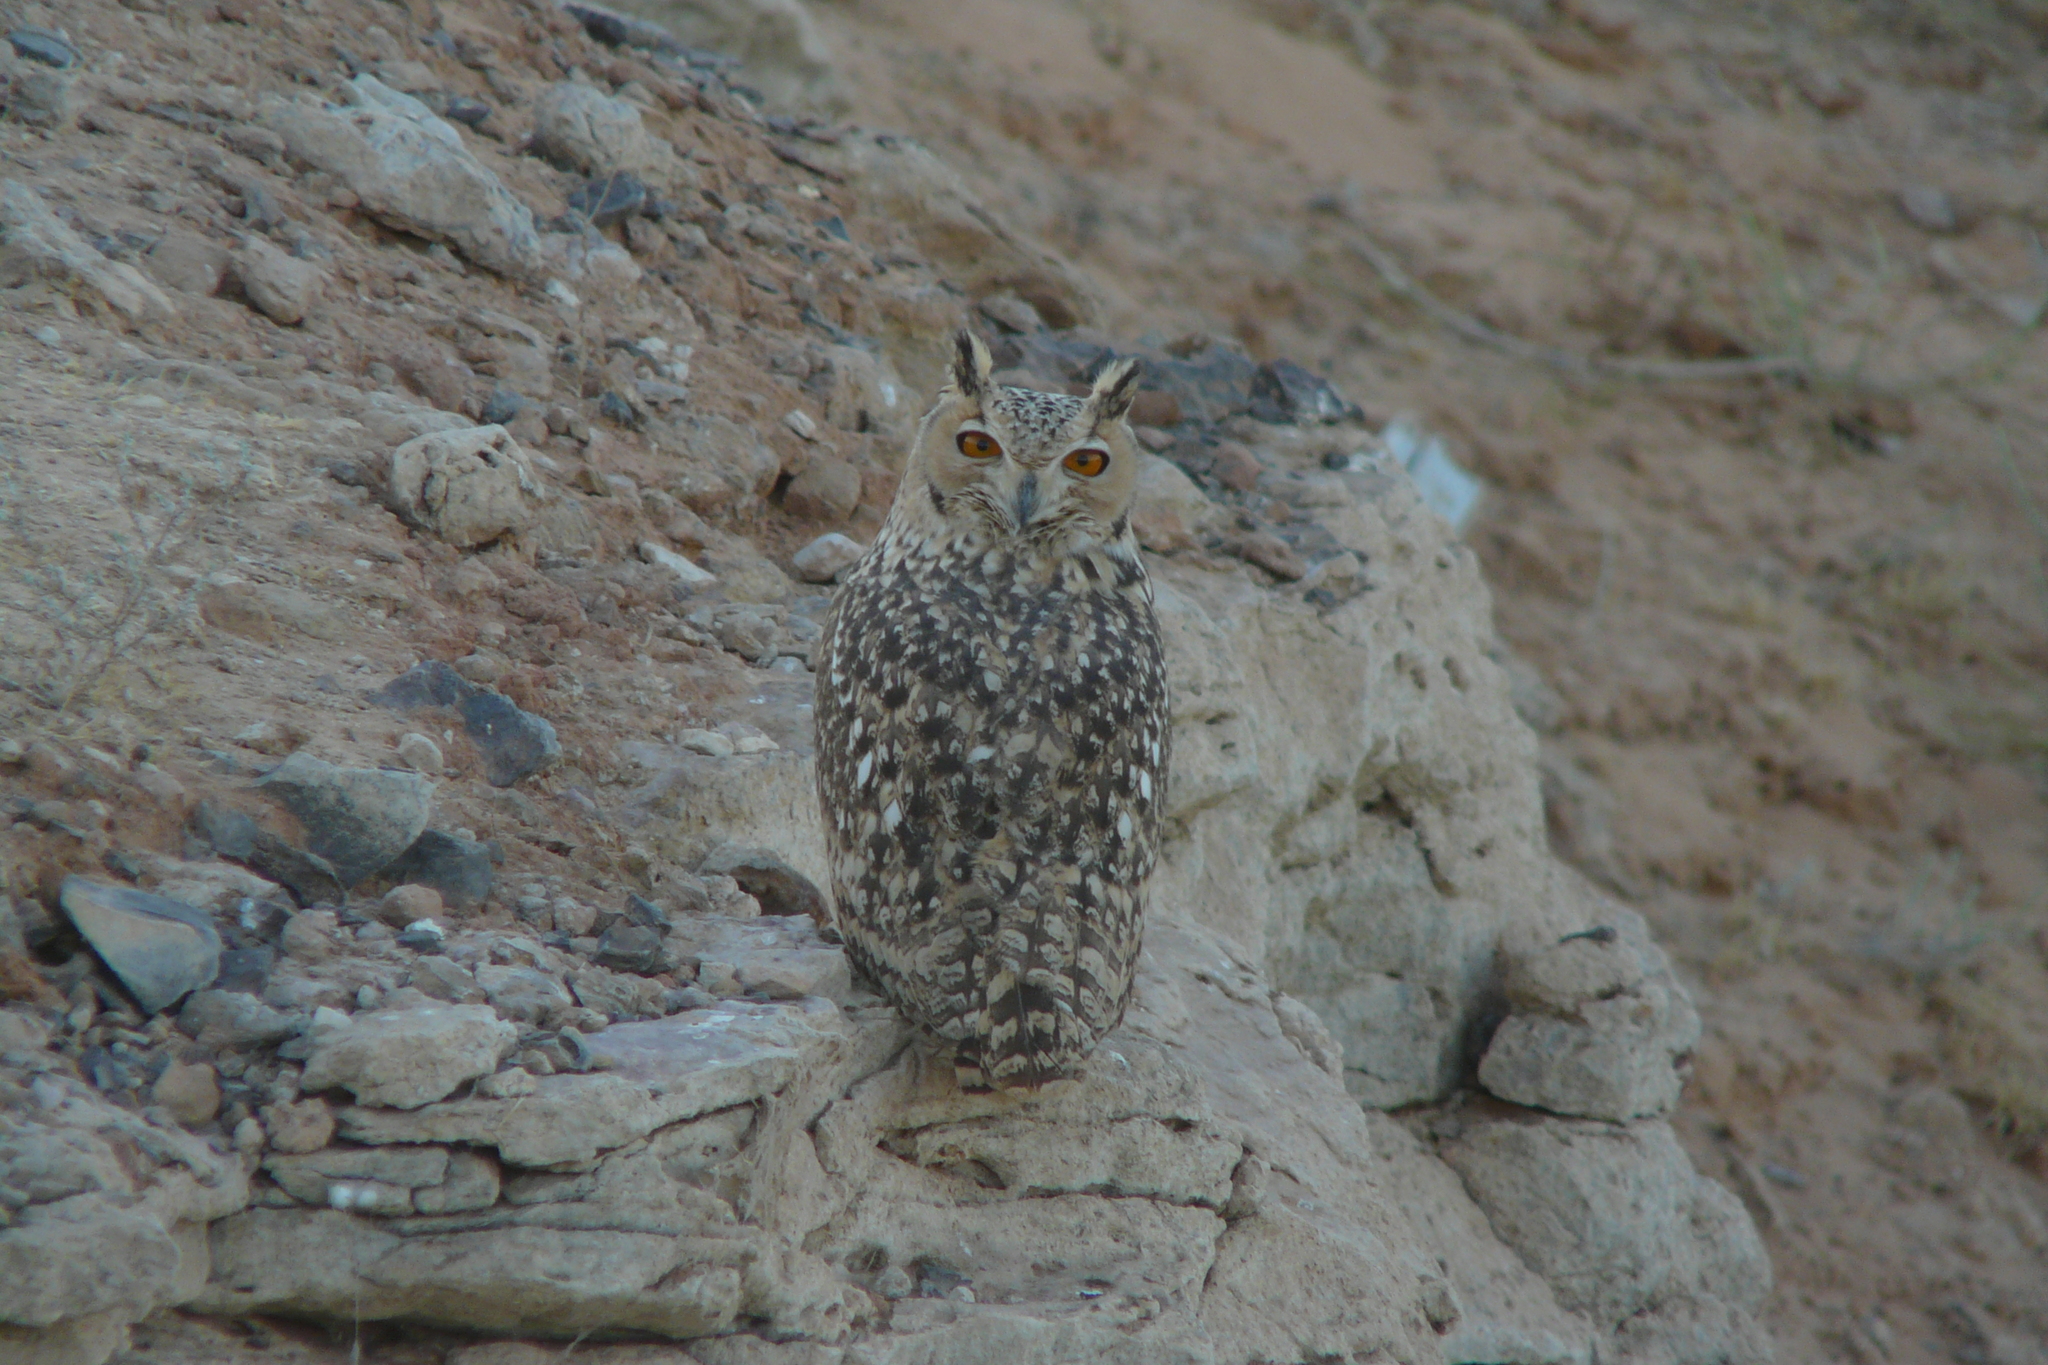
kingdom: Animalia
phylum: Chordata
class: Aves
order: Strigiformes
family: Strigidae
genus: Bubo
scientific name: Bubo ascalaphus
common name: Pharaoh eagle-owl
